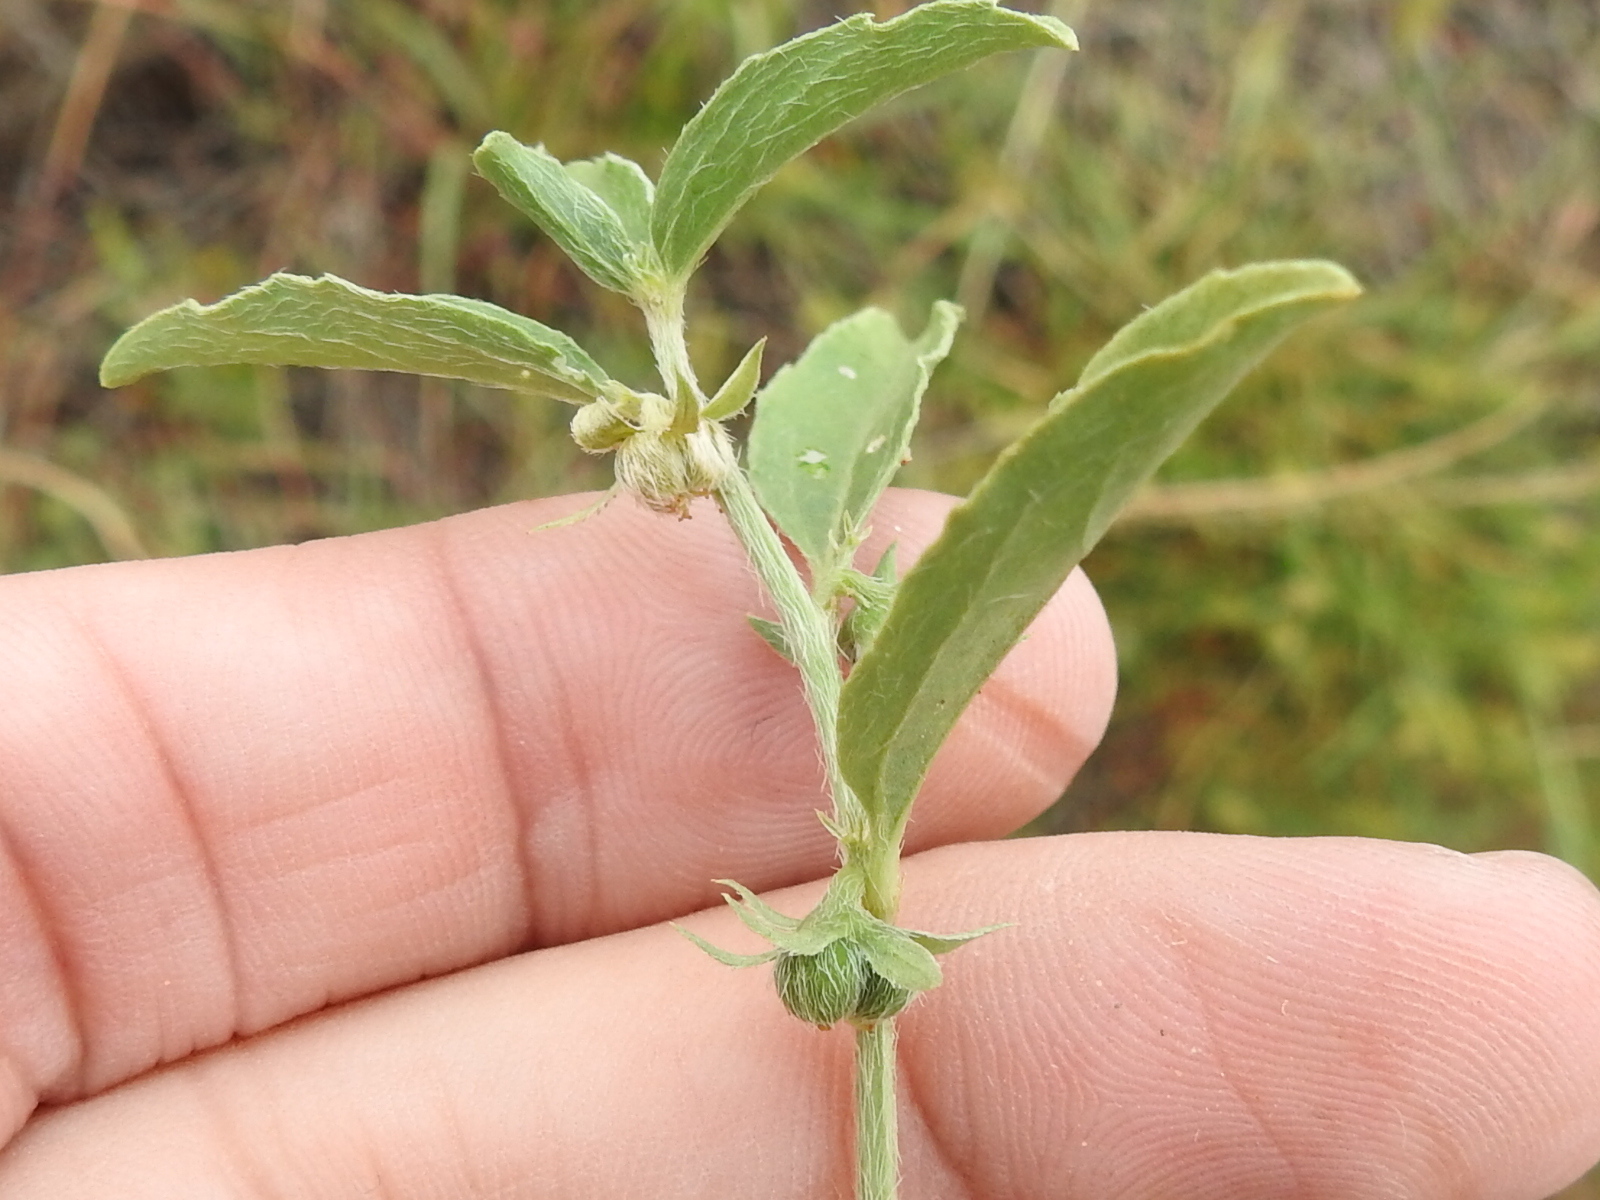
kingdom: Plantae
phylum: Tracheophyta
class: Magnoliopsida
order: Malpighiales
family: Euphorbiaceae
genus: Ditaxis
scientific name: Ditaxis humilis
